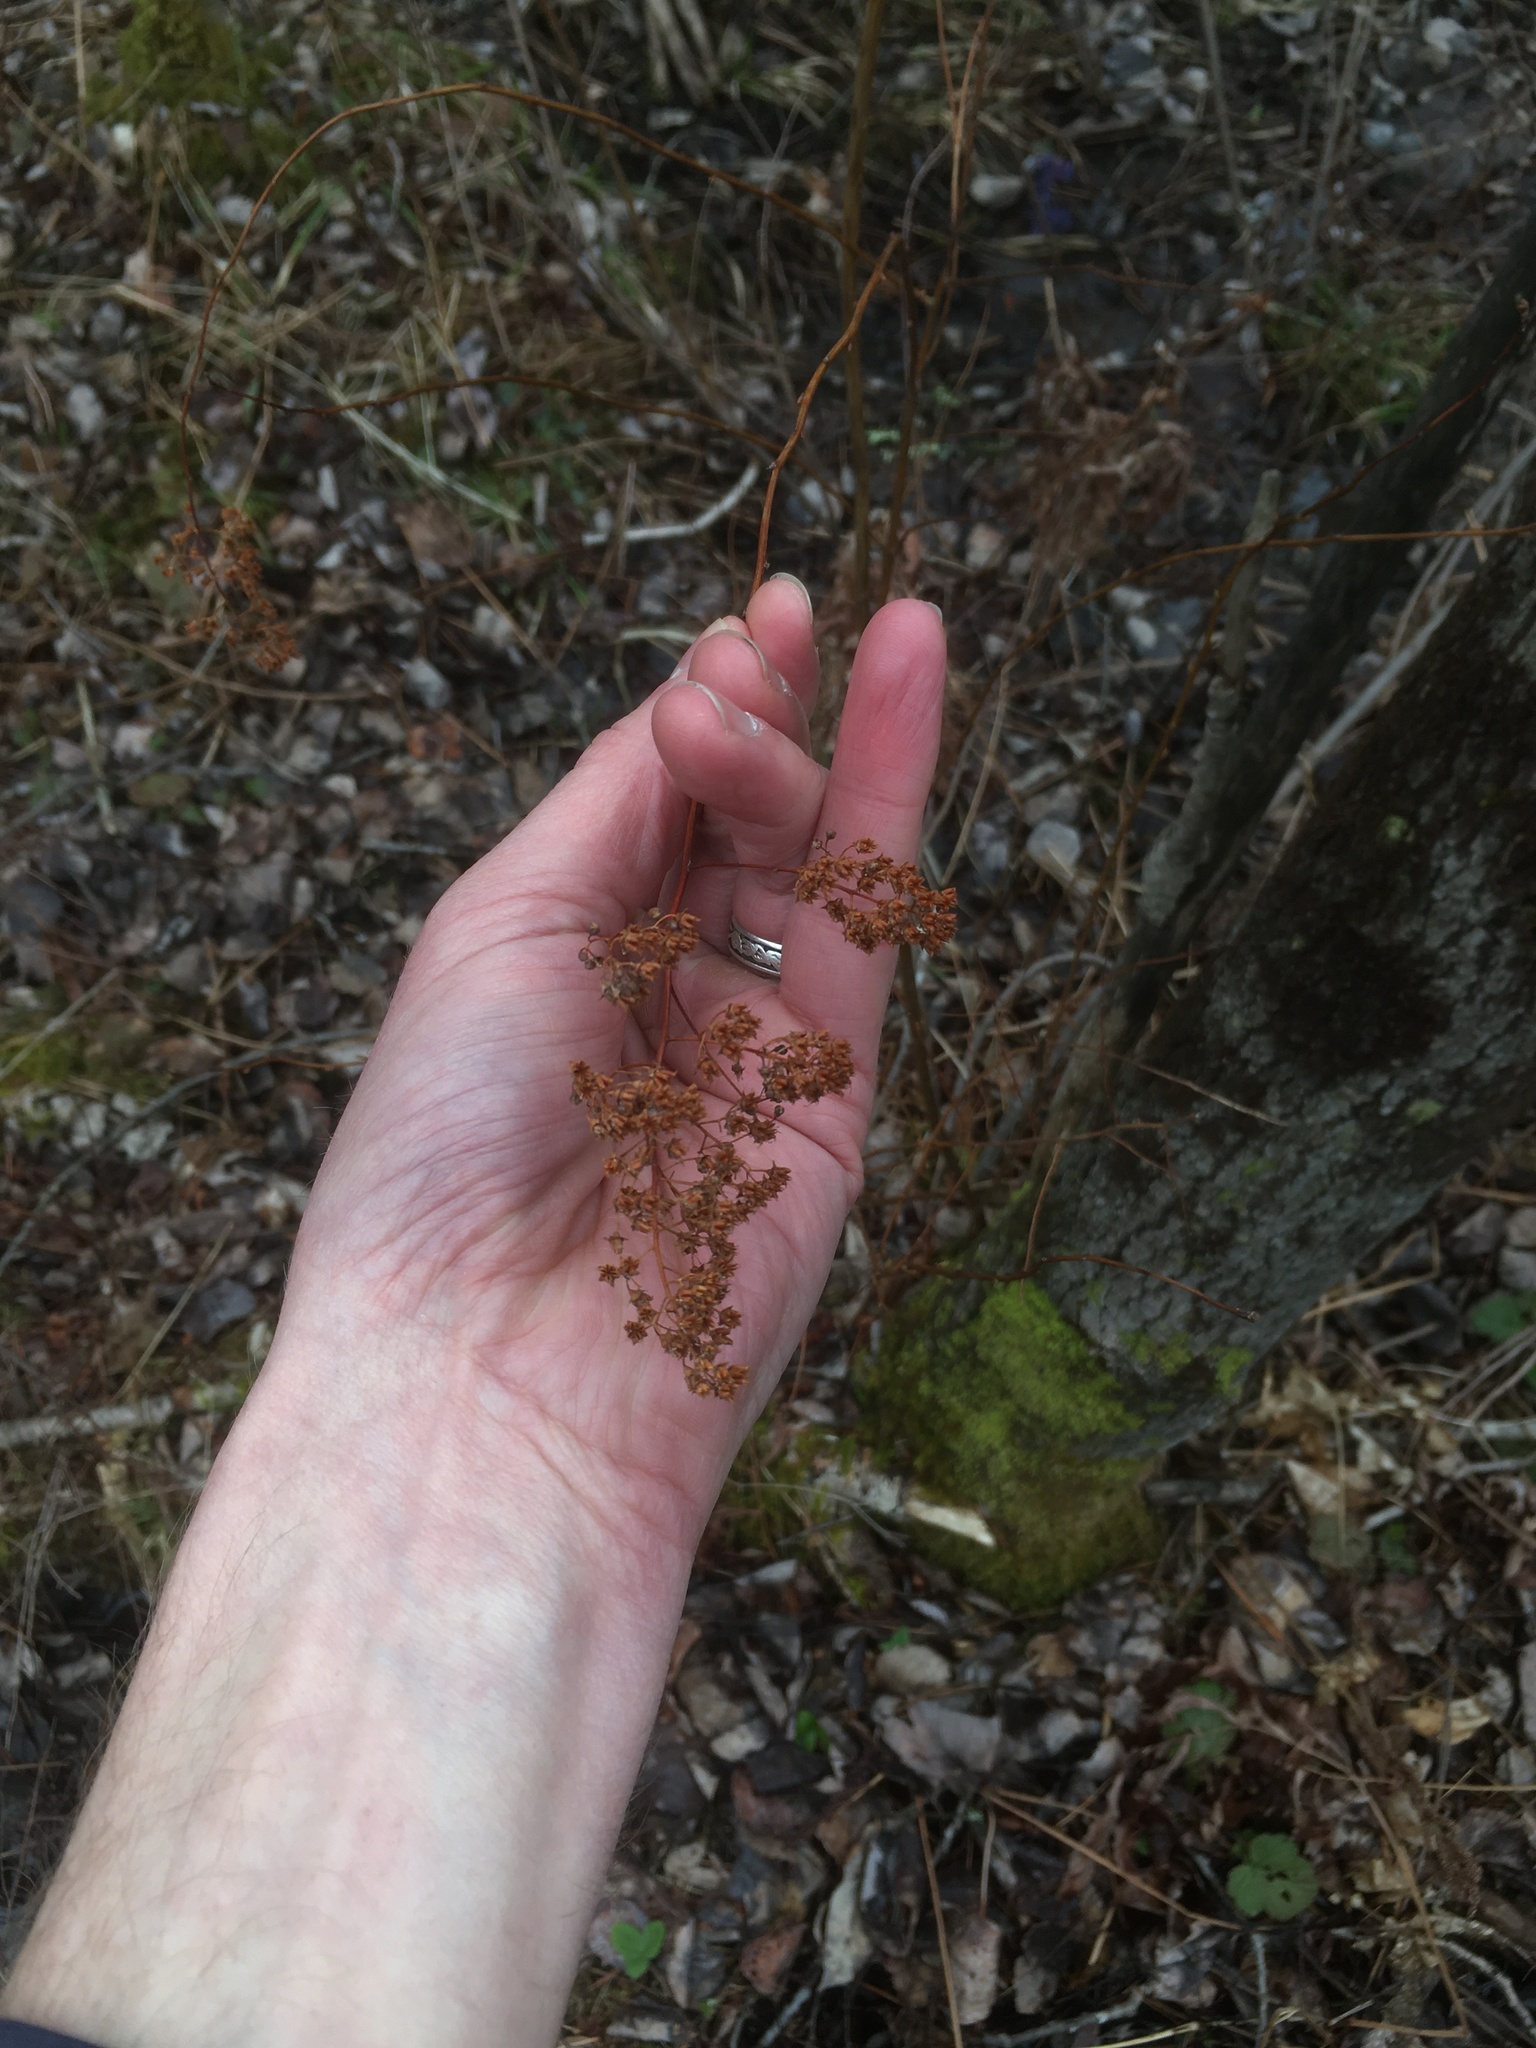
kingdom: Plantae
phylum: Tracheophyta
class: Magnoliopsida
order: Rosales
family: Rosaceae
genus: Spiraea
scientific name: Spiraea alba
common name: Pale bridewort
